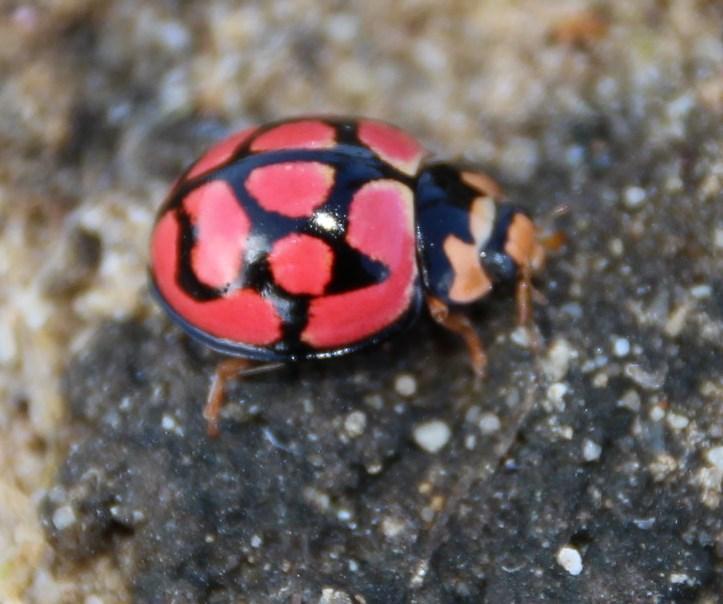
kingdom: Animalia
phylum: Arthropoda
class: Insecta
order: Coleoptera
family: Coccinellidae
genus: Cheilomenes
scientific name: Cheilomenes lunata
